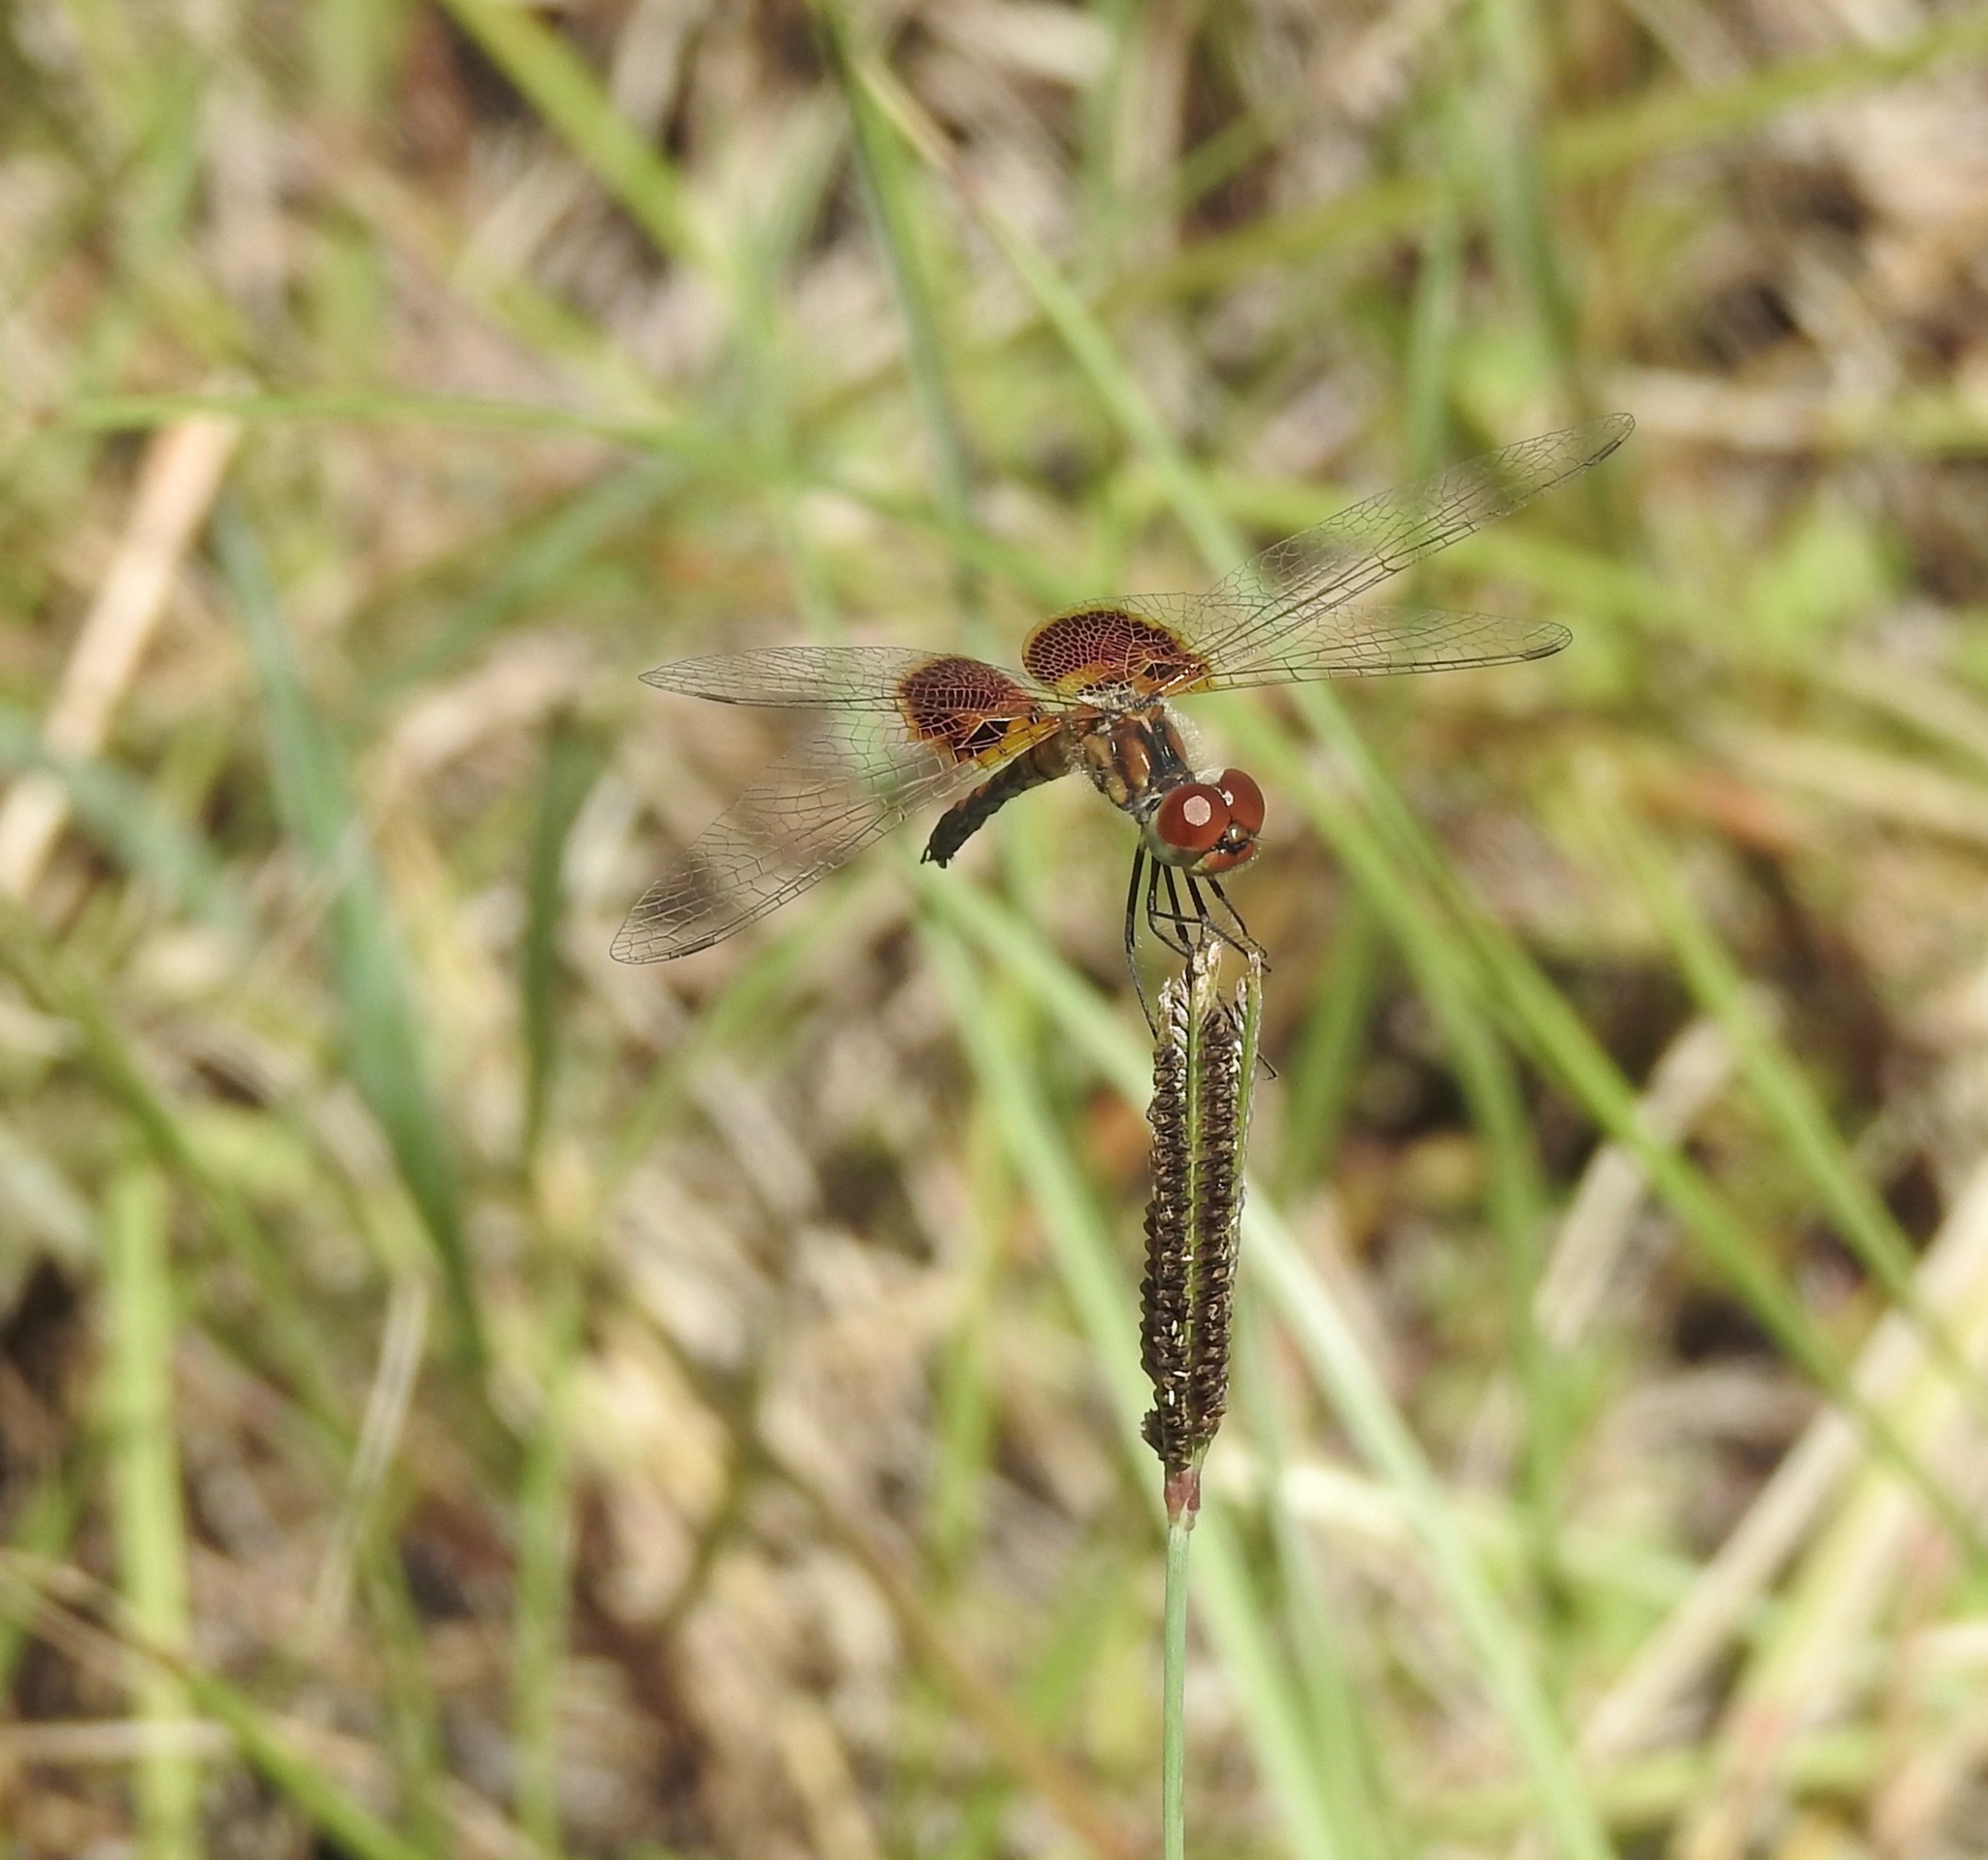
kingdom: Animalia
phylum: Arthropoda
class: Insecta
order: Odonata
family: Libellulidae
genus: Celithemis
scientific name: Celithemis amanda
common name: Amanda's pennant
